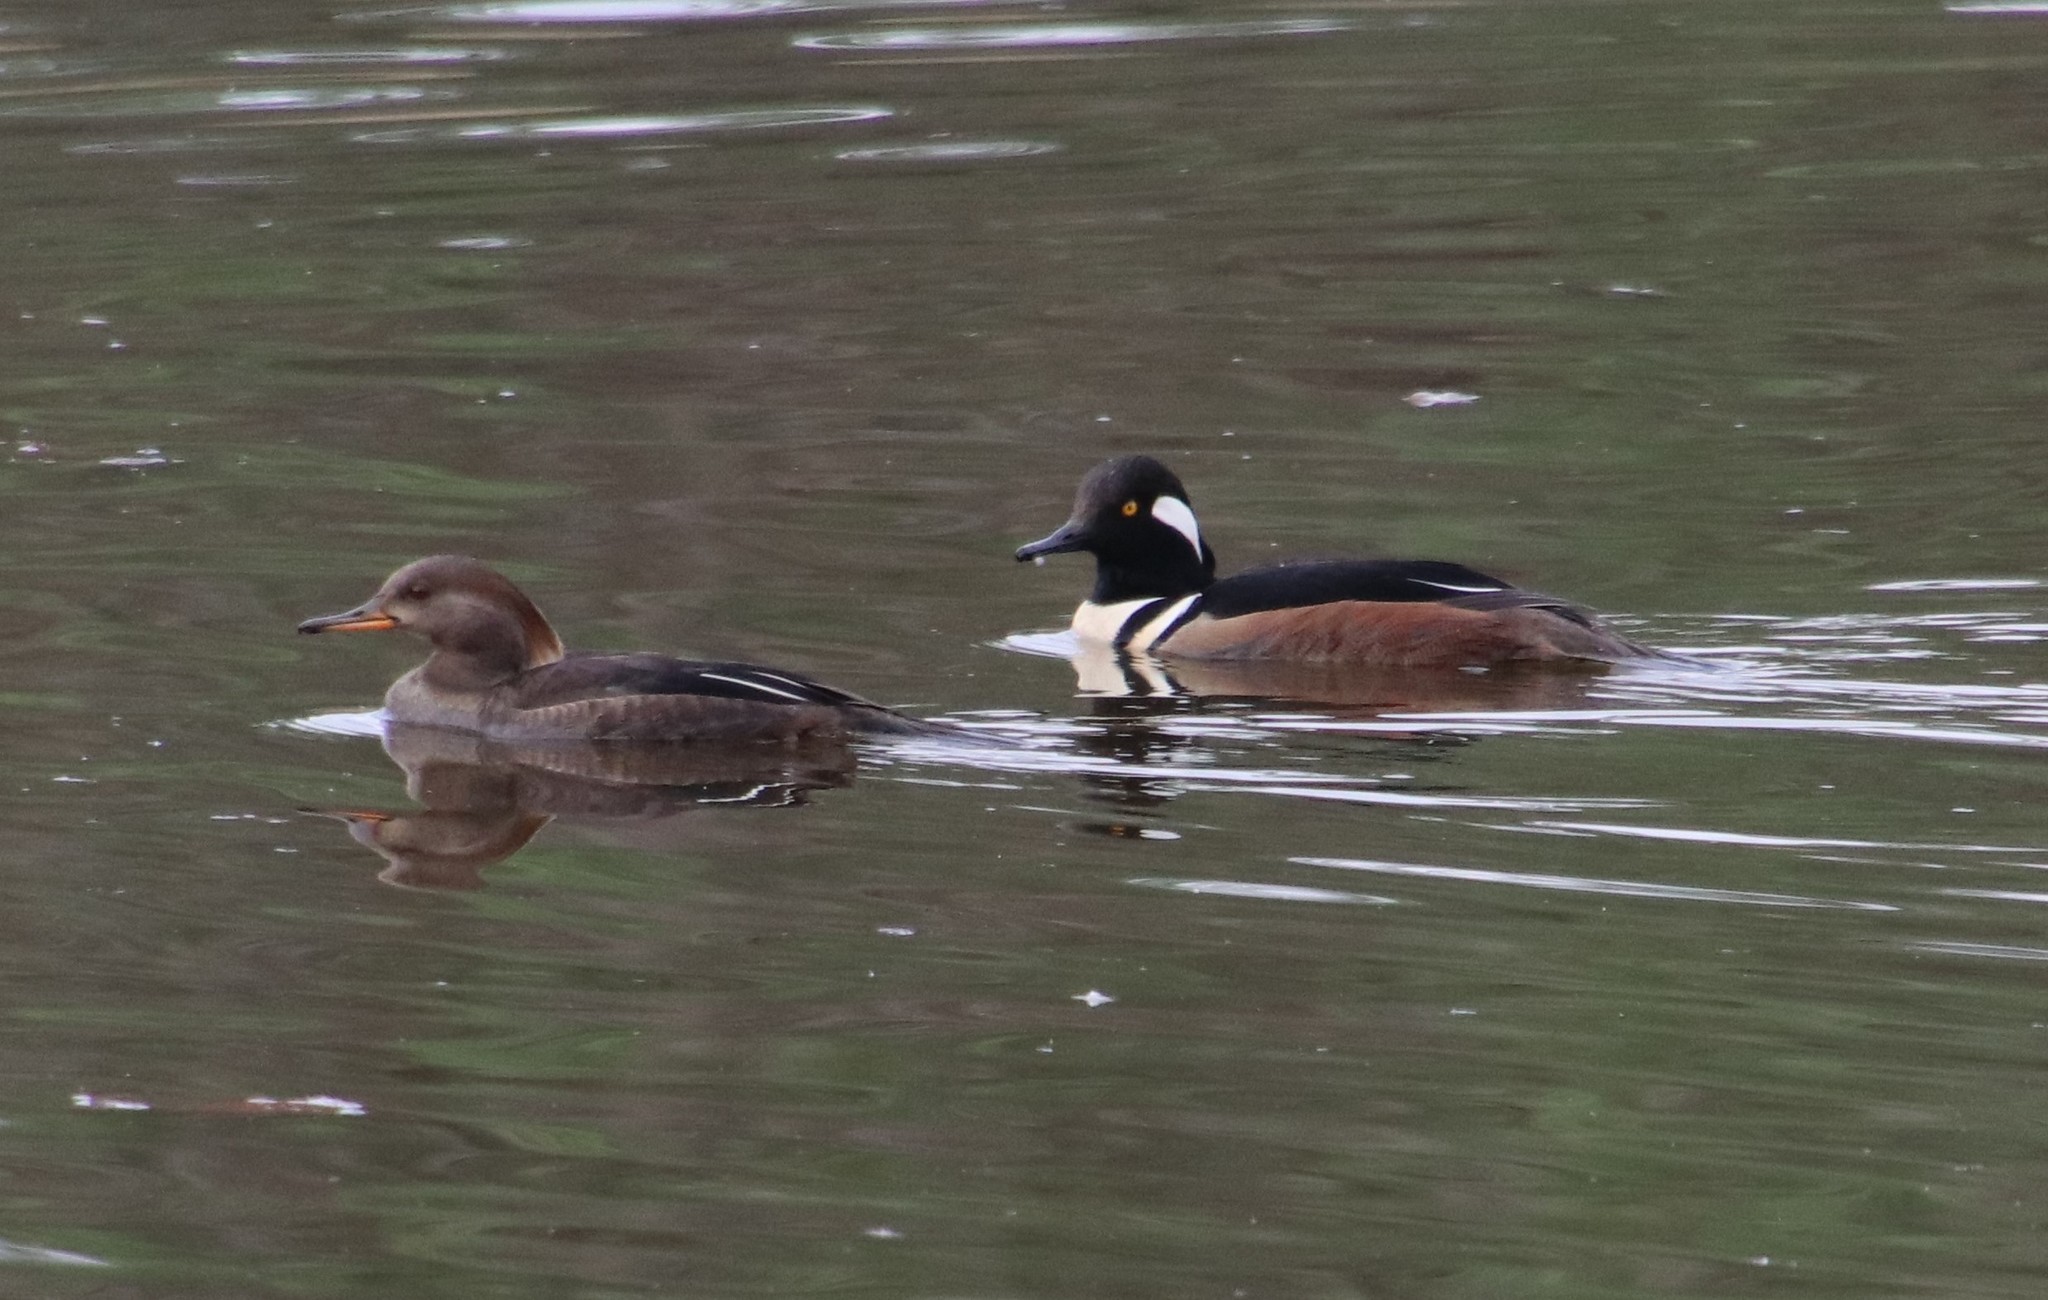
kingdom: Animalia
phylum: Chordata
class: Aves
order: Anseriformes
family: Anatidae
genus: Lophodytes
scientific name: Lophodytes cucullatus
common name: Hooded merganser
